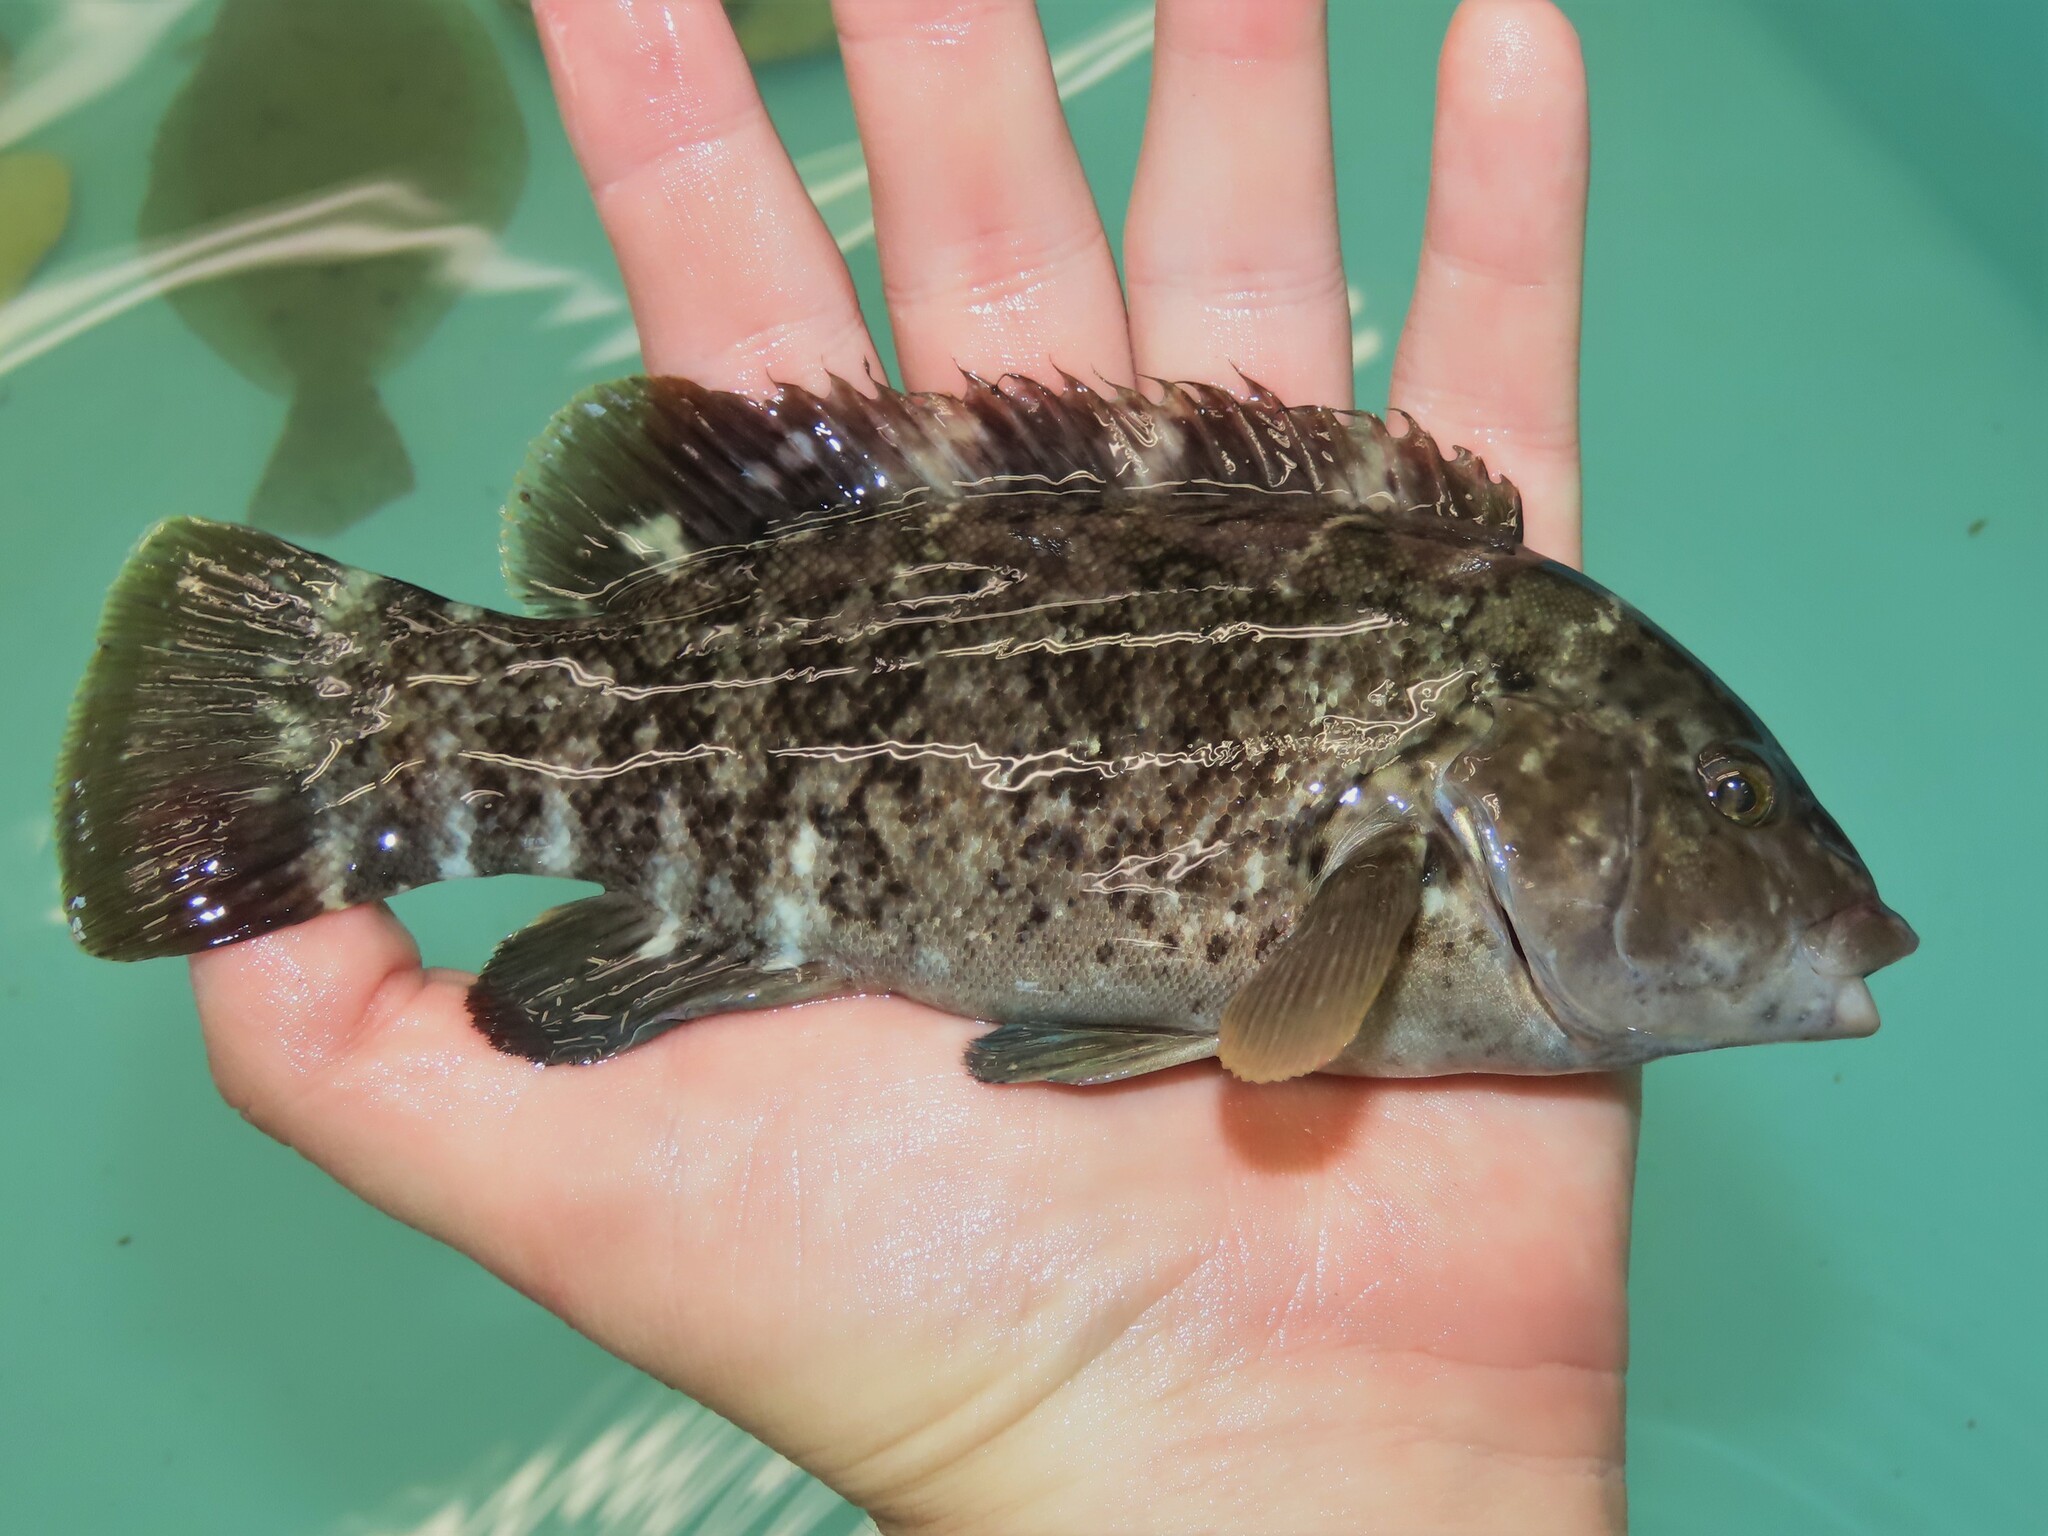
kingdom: Animalia
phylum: Chordata
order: Perciformes
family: Labridae
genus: Tautoga
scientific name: Tautoga onitis
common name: Tautog
